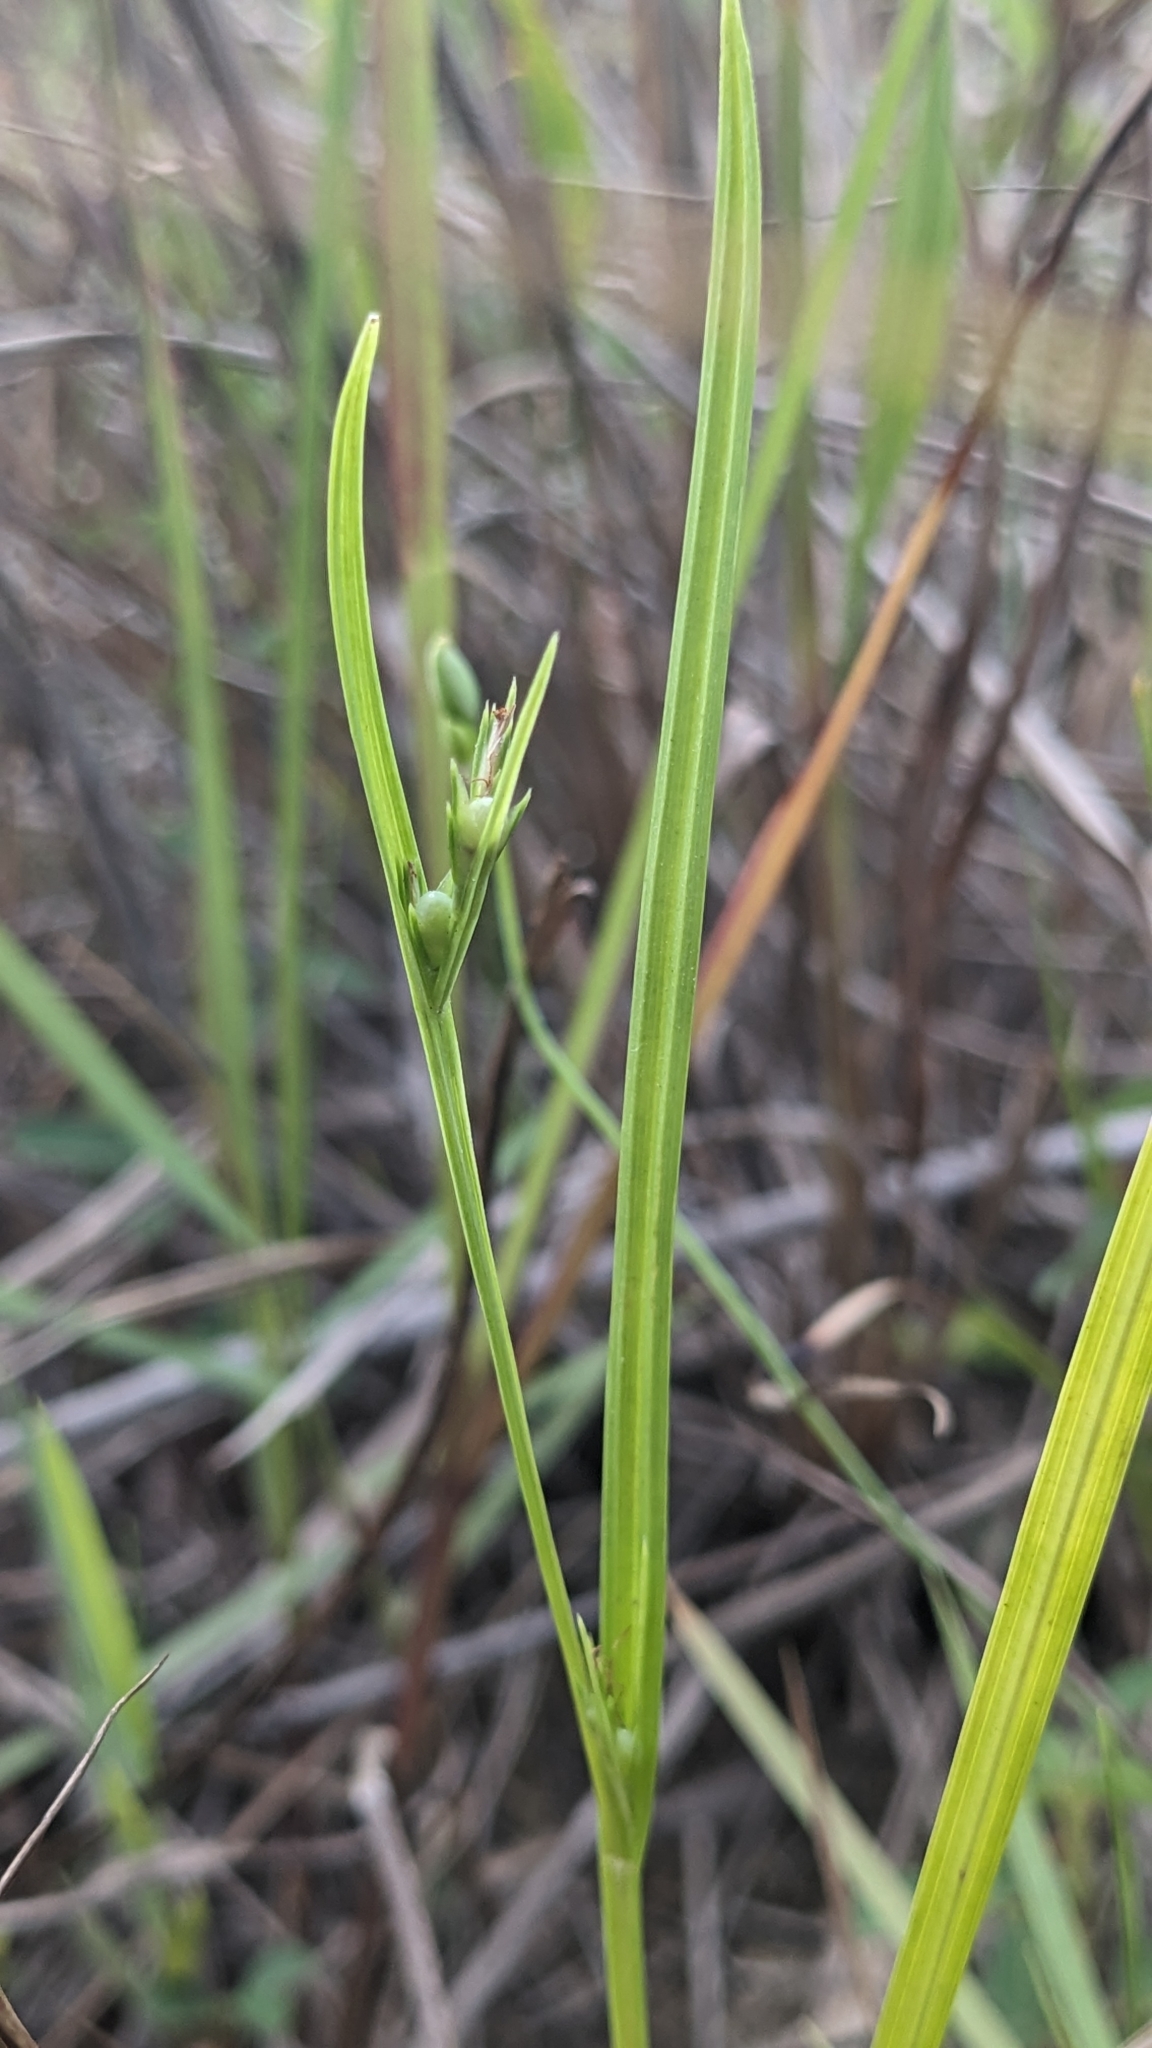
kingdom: Plantae
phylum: Tracheophyta
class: Liliopsida
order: Poales
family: Cyperaceae
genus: Scleria
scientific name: Scleria novae-hollandiae
